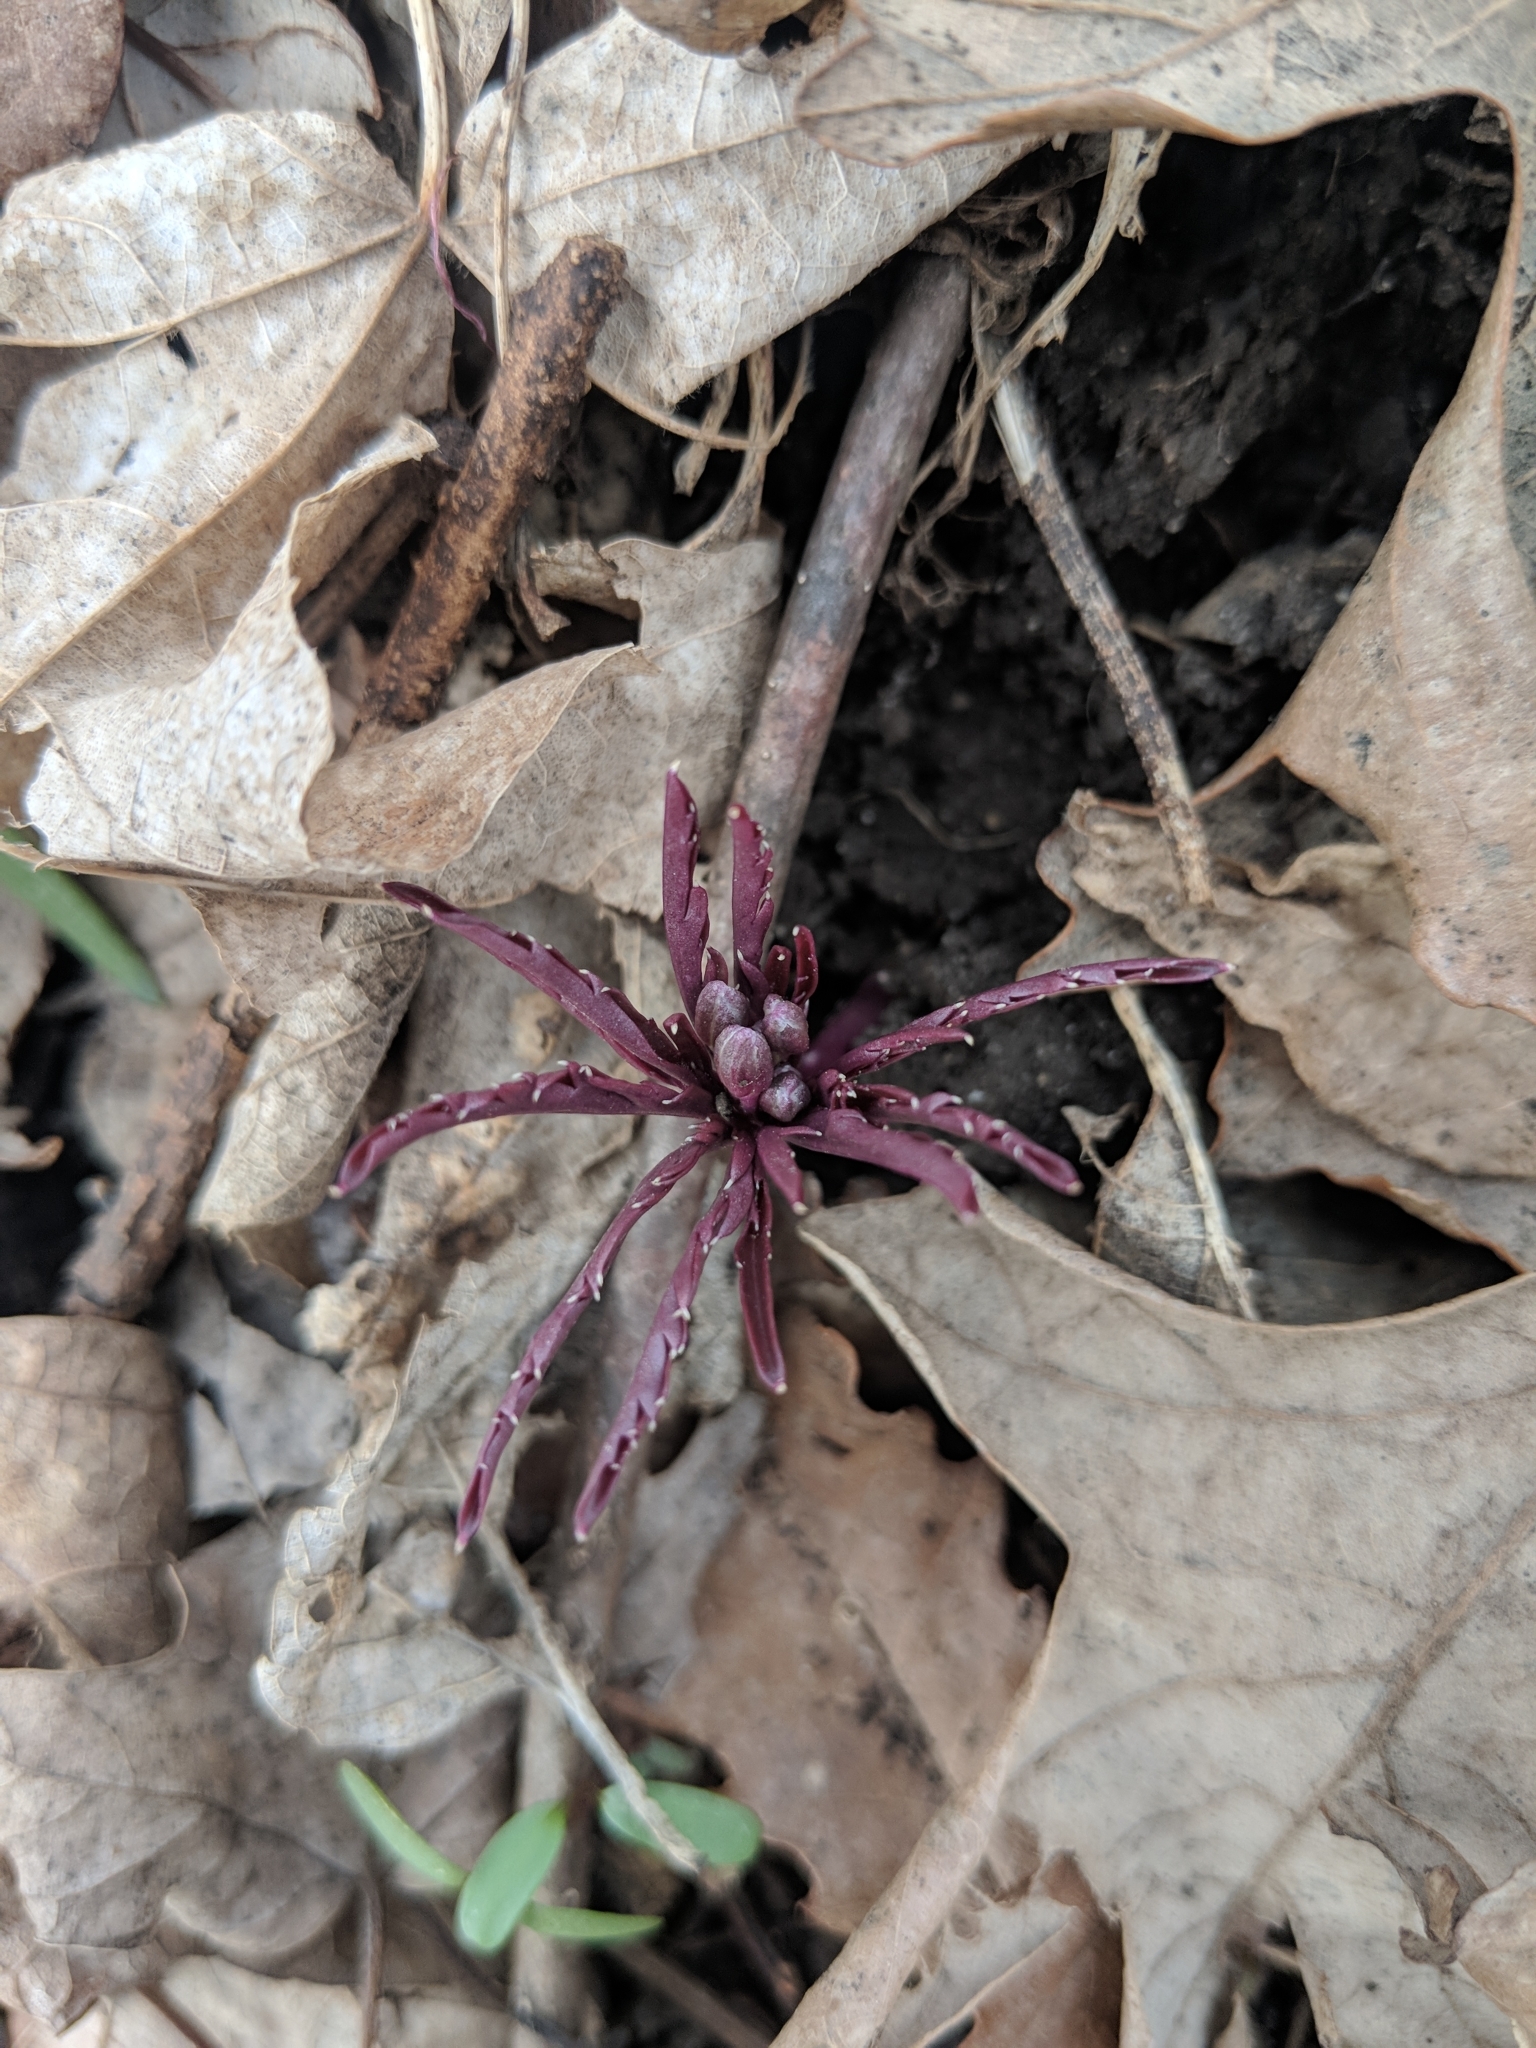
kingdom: Plantae
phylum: Tracheophyta
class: Magnoliopsida
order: Brassicales
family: Brassicaceae
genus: Cardamine
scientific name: Cardamine concatenata
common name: Cut-leaf toothcup
